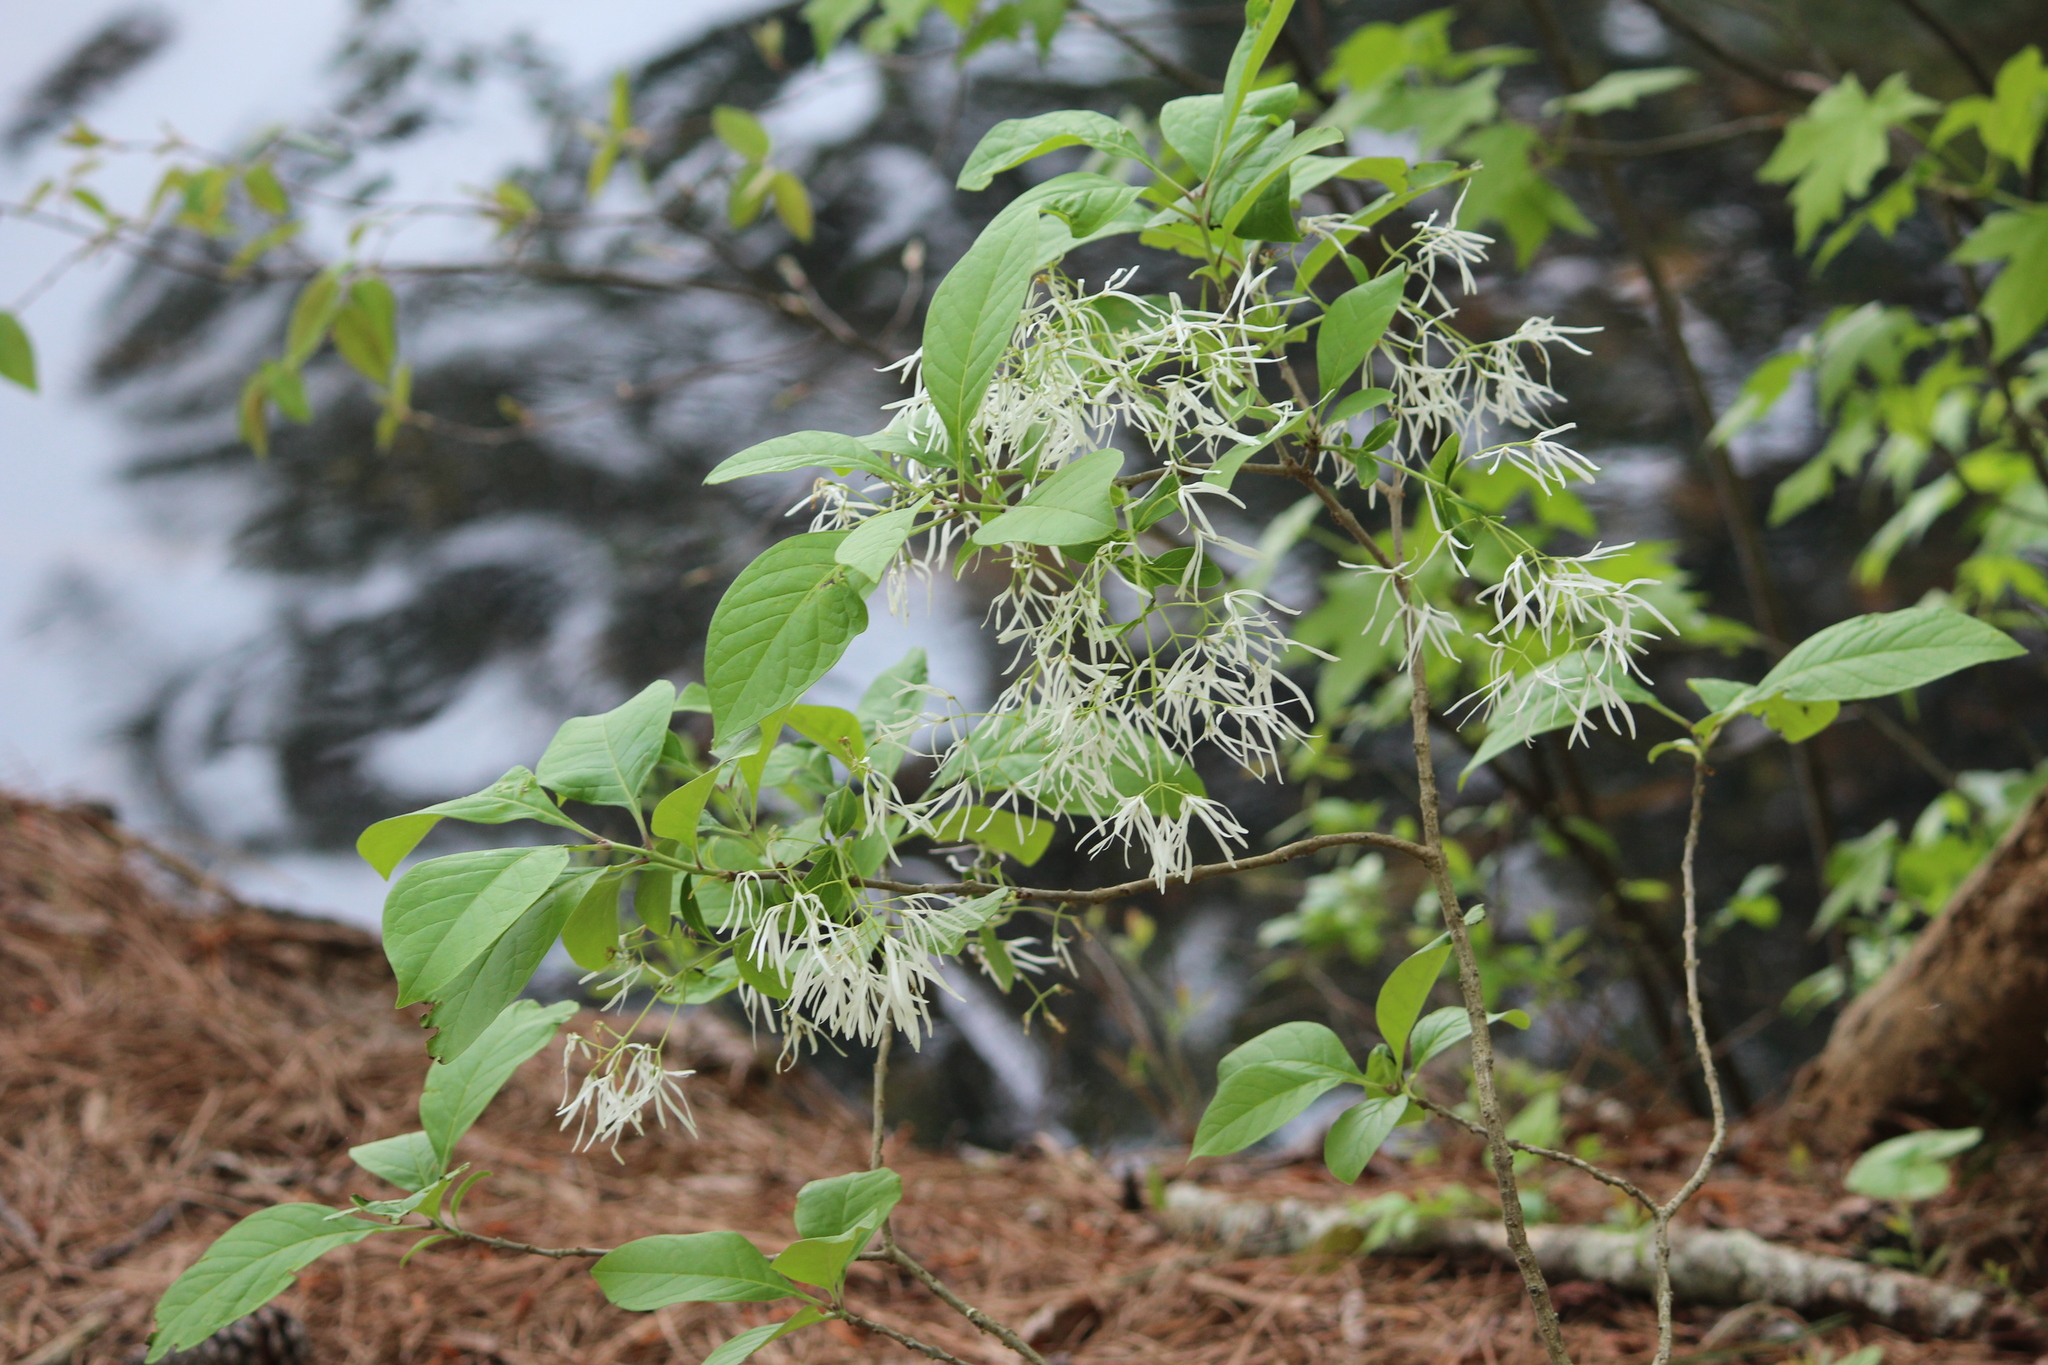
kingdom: Plantae
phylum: Tracheophyta
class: Magnoliopsida
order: Lamiales
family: Oleaceae
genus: Chionanthus
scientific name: Chionanthus virginicus
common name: American fringetree
